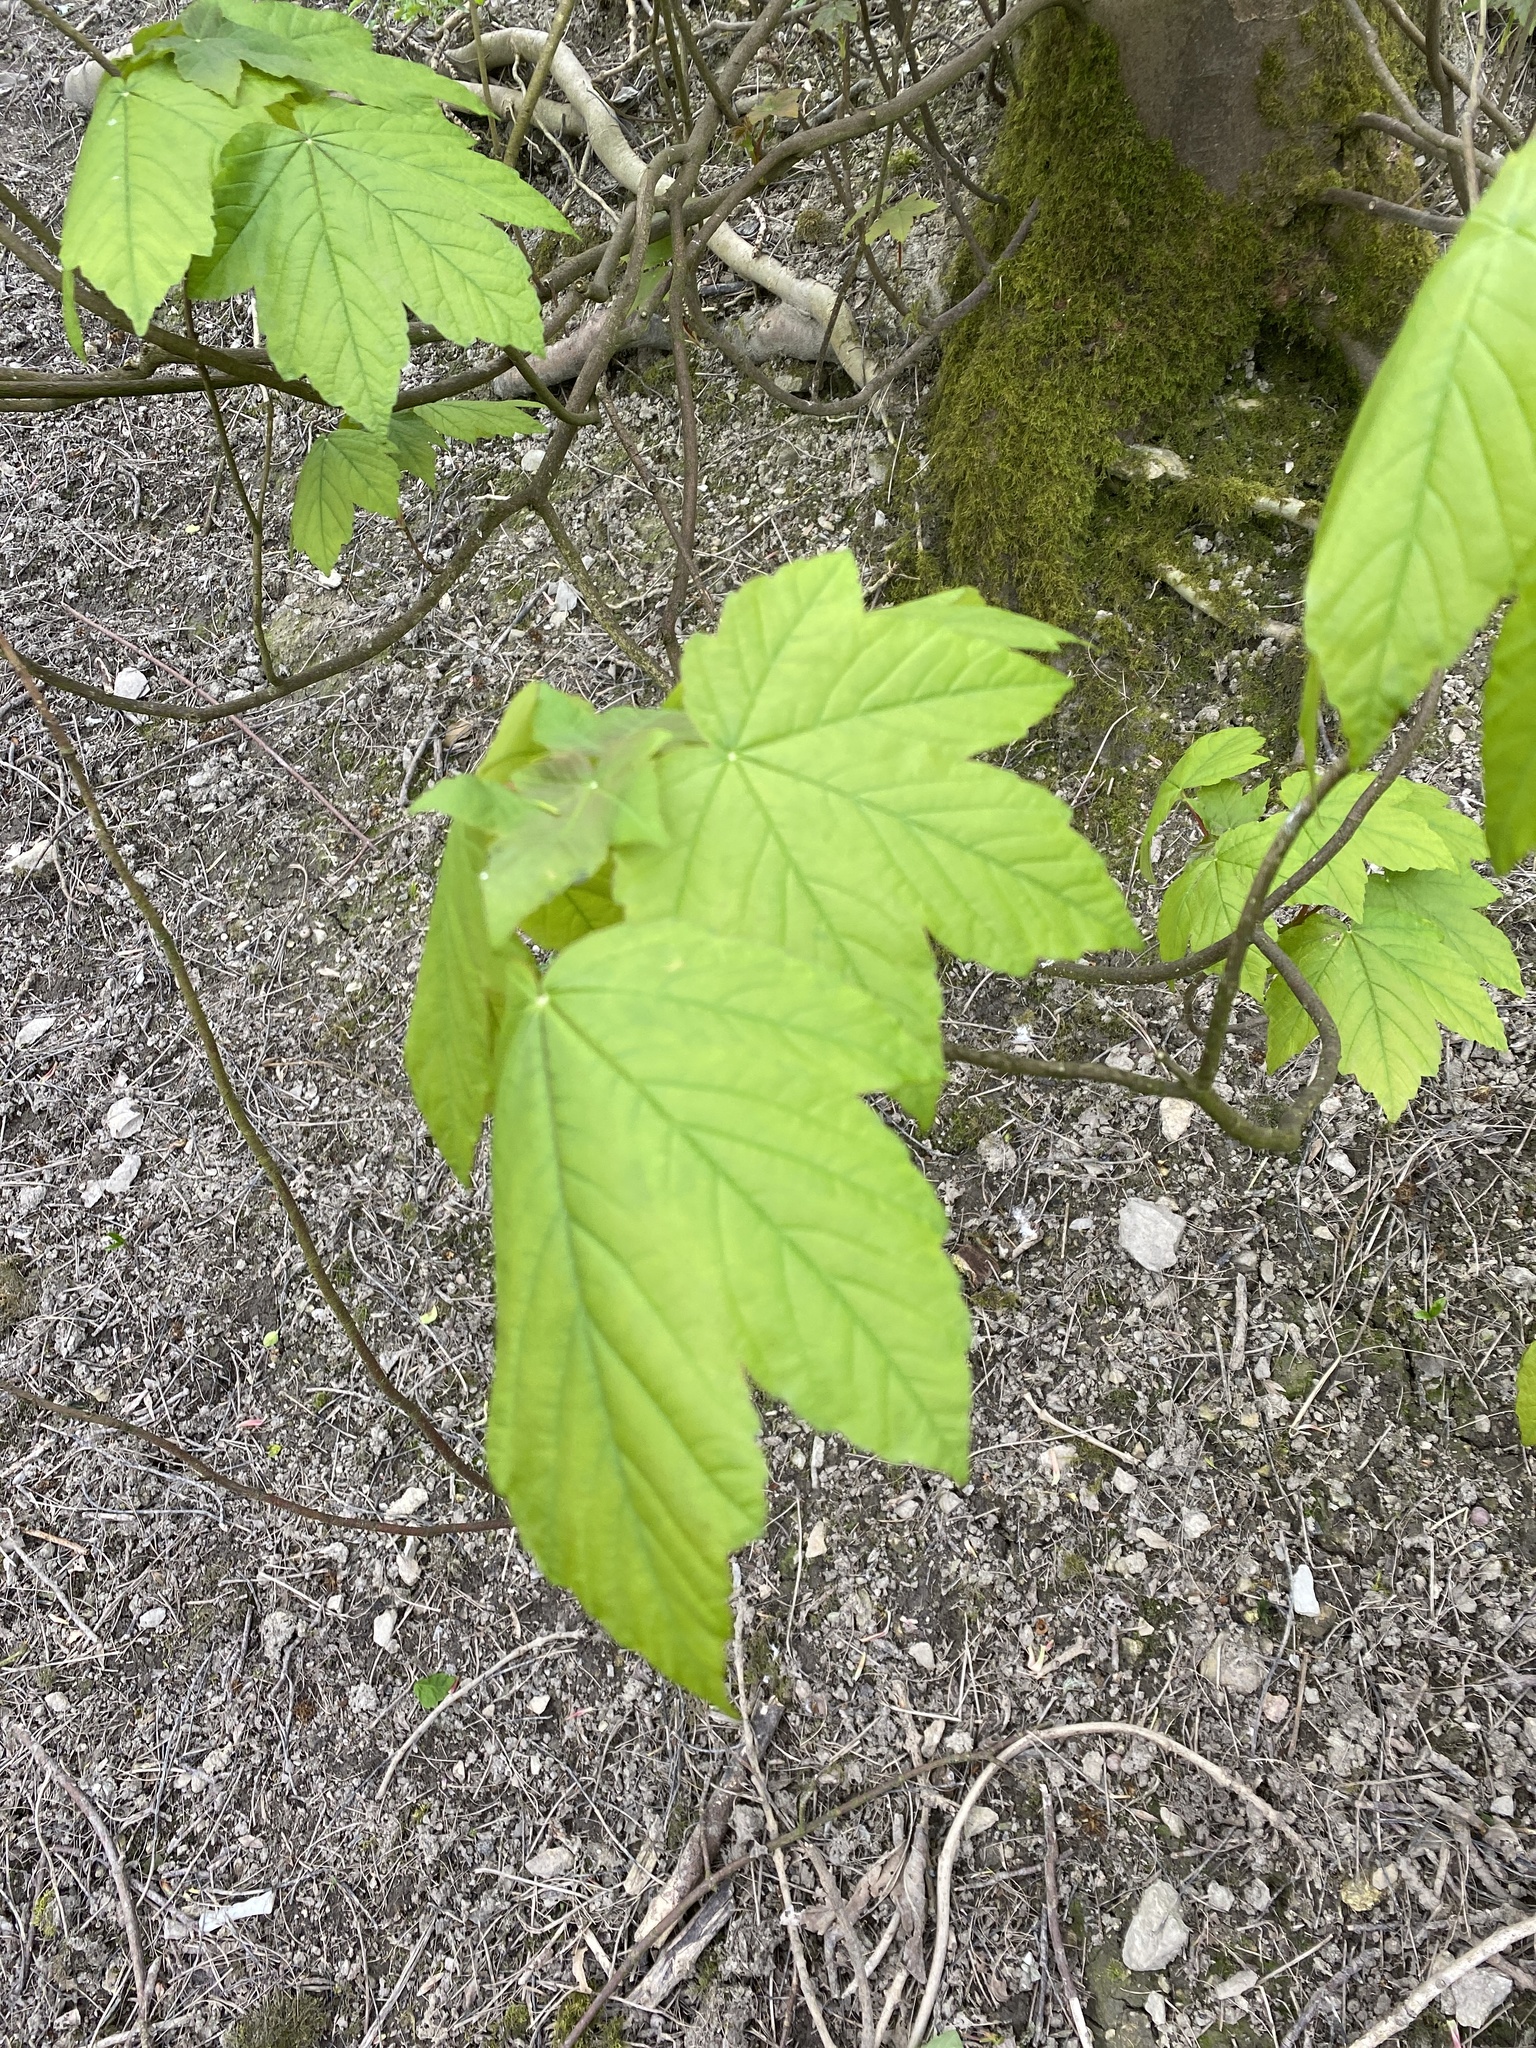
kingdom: Plantae
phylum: Tracheophyta
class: Magnoliopsida
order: Sapindales
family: Sapindaceae
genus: Acer
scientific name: Acer pseudoplatanus
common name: Sycamore
